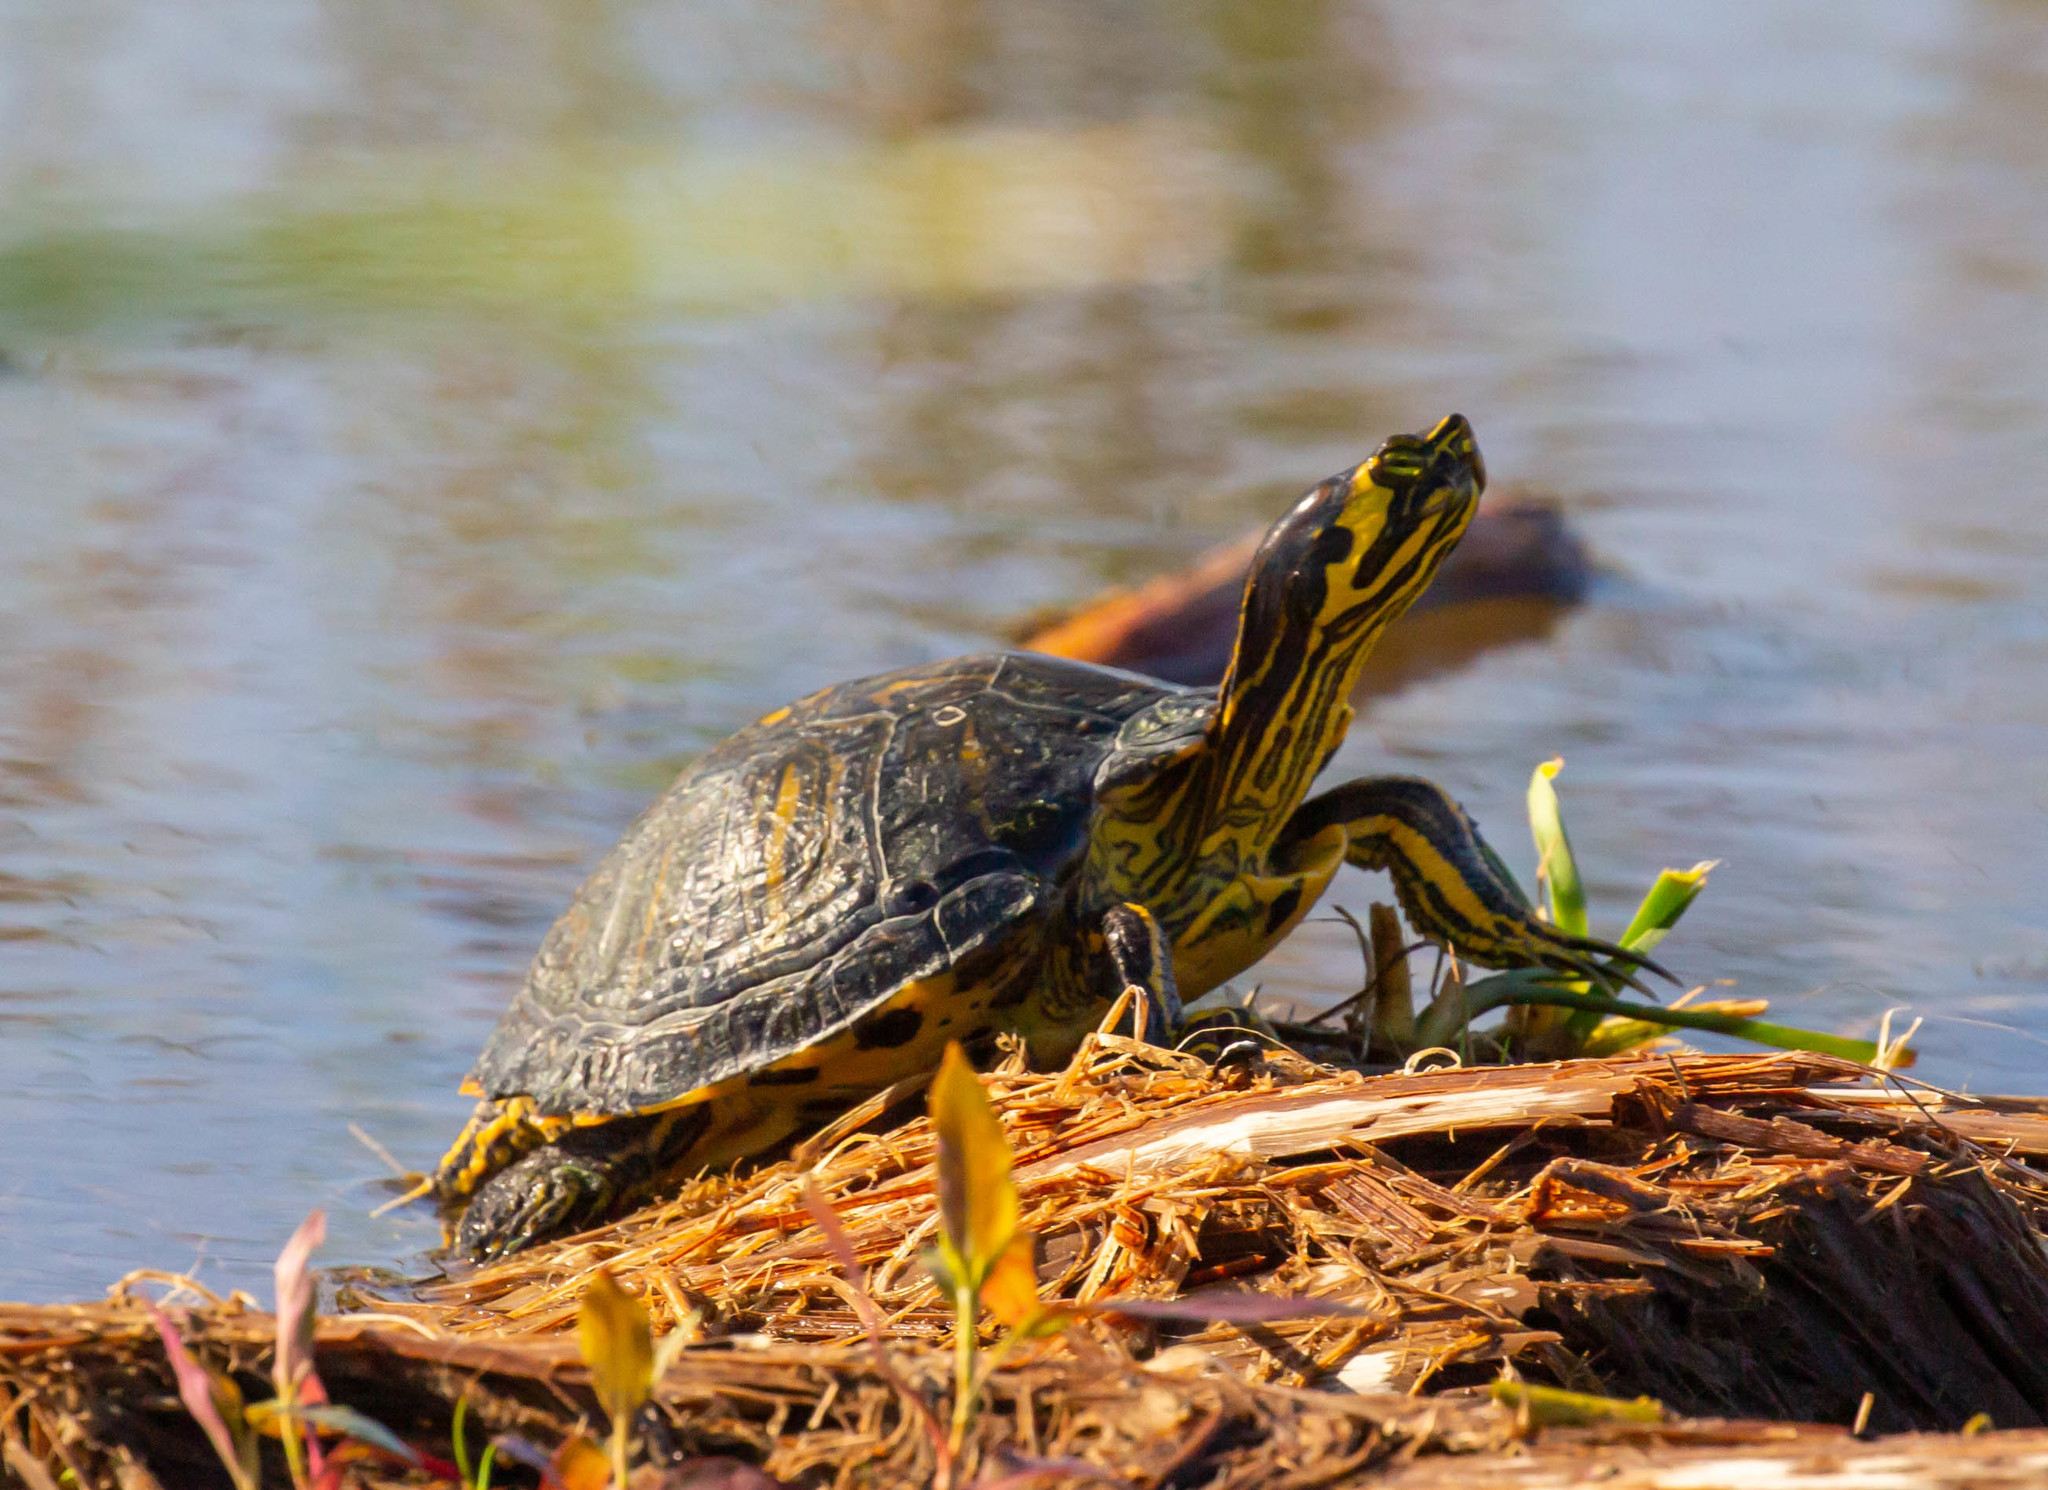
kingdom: Animalia
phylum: Chordata
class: Testudines
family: Emydidae
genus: Trachemys
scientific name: Trachemys scripta
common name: Slider
